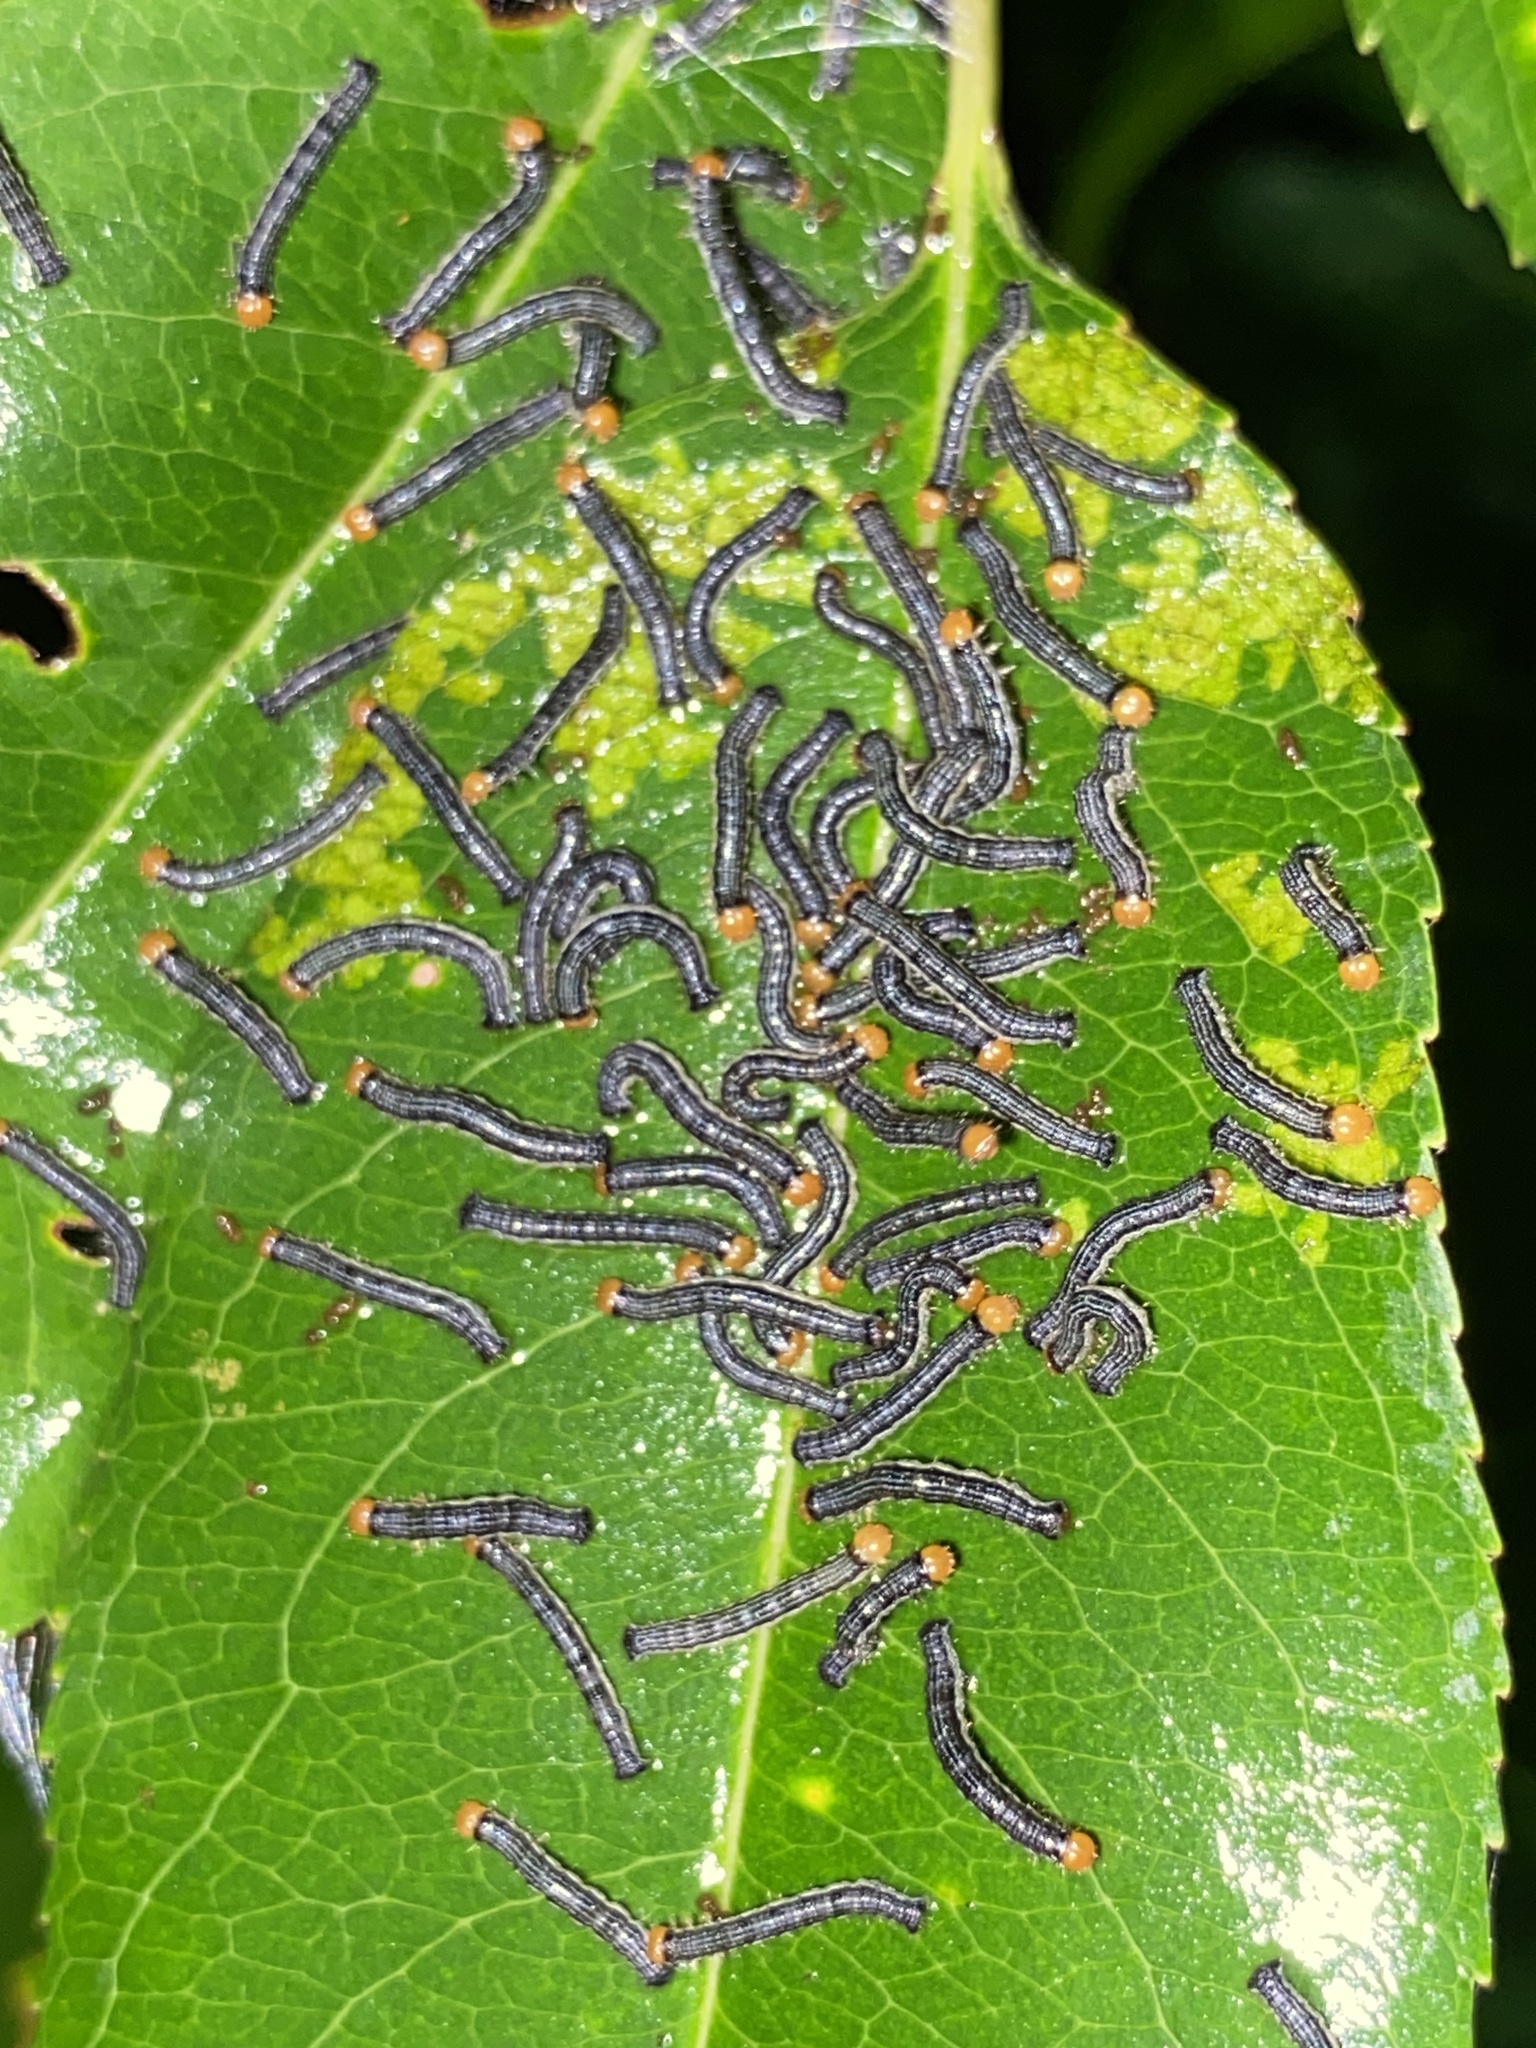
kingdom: Animalia
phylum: Arthropoda
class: Insecta
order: Lepidoptera
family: Geometridae
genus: Rheumaptera
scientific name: Rheumaptera prunivorata
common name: Cherry scallop shell moth
